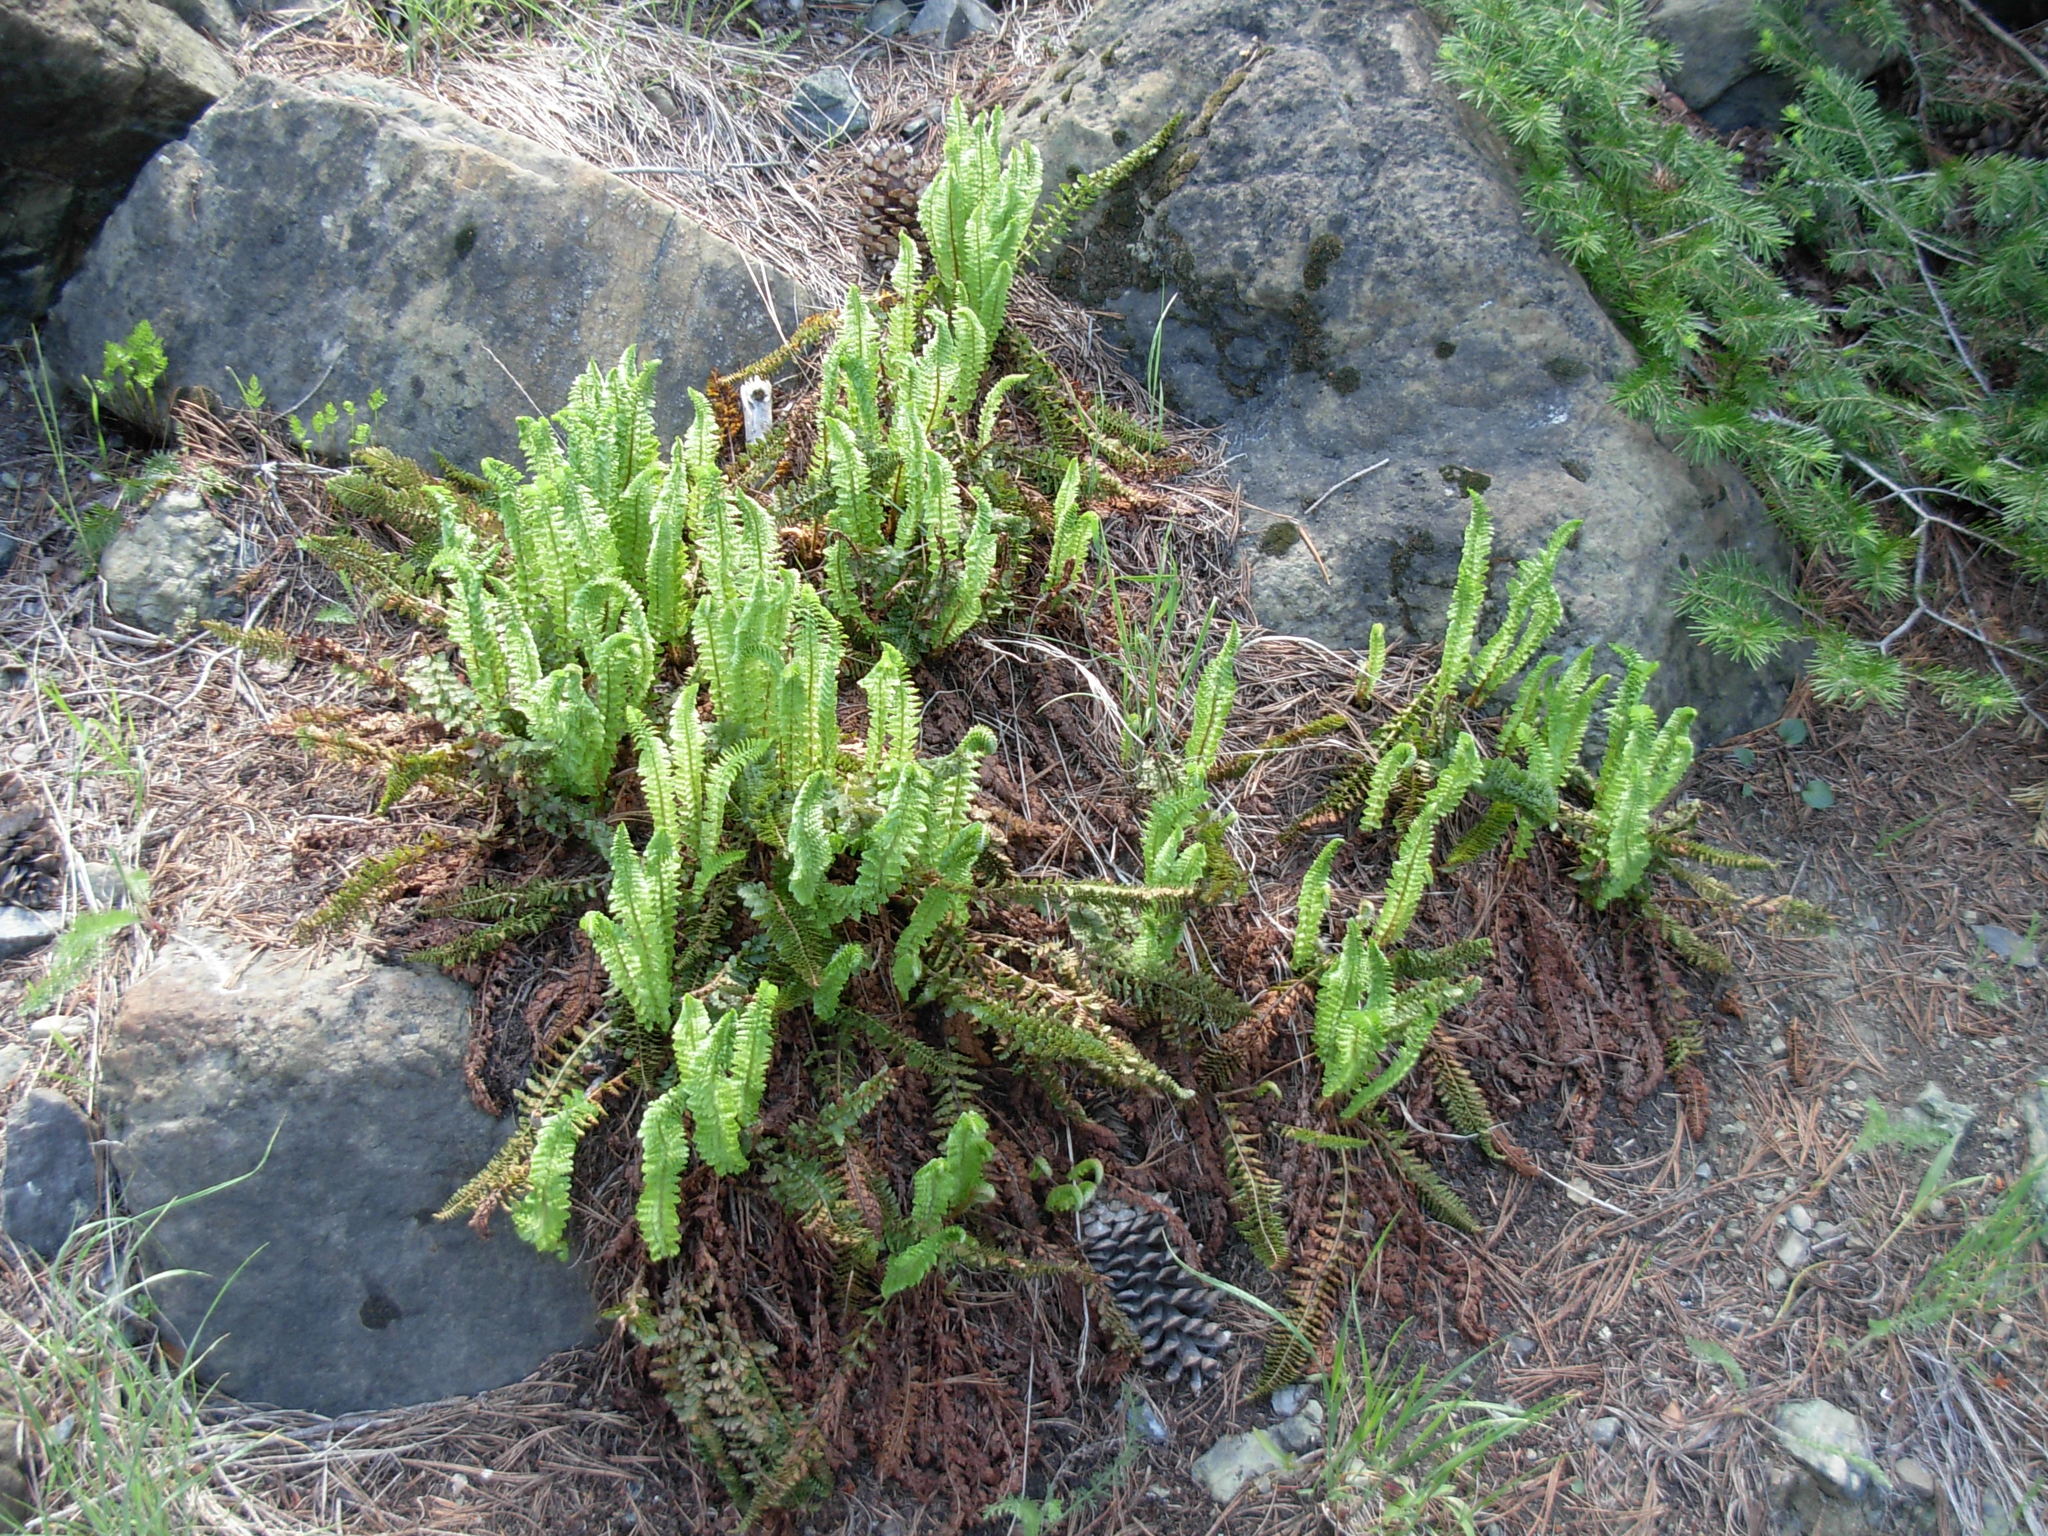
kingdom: Plantae
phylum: Tracheophyta
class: Polypodiopsida
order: Polypodiales
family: Dryopteridaceae
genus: Polystichum
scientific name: Polystichum lemmonii
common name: Lemmon's holly fern
